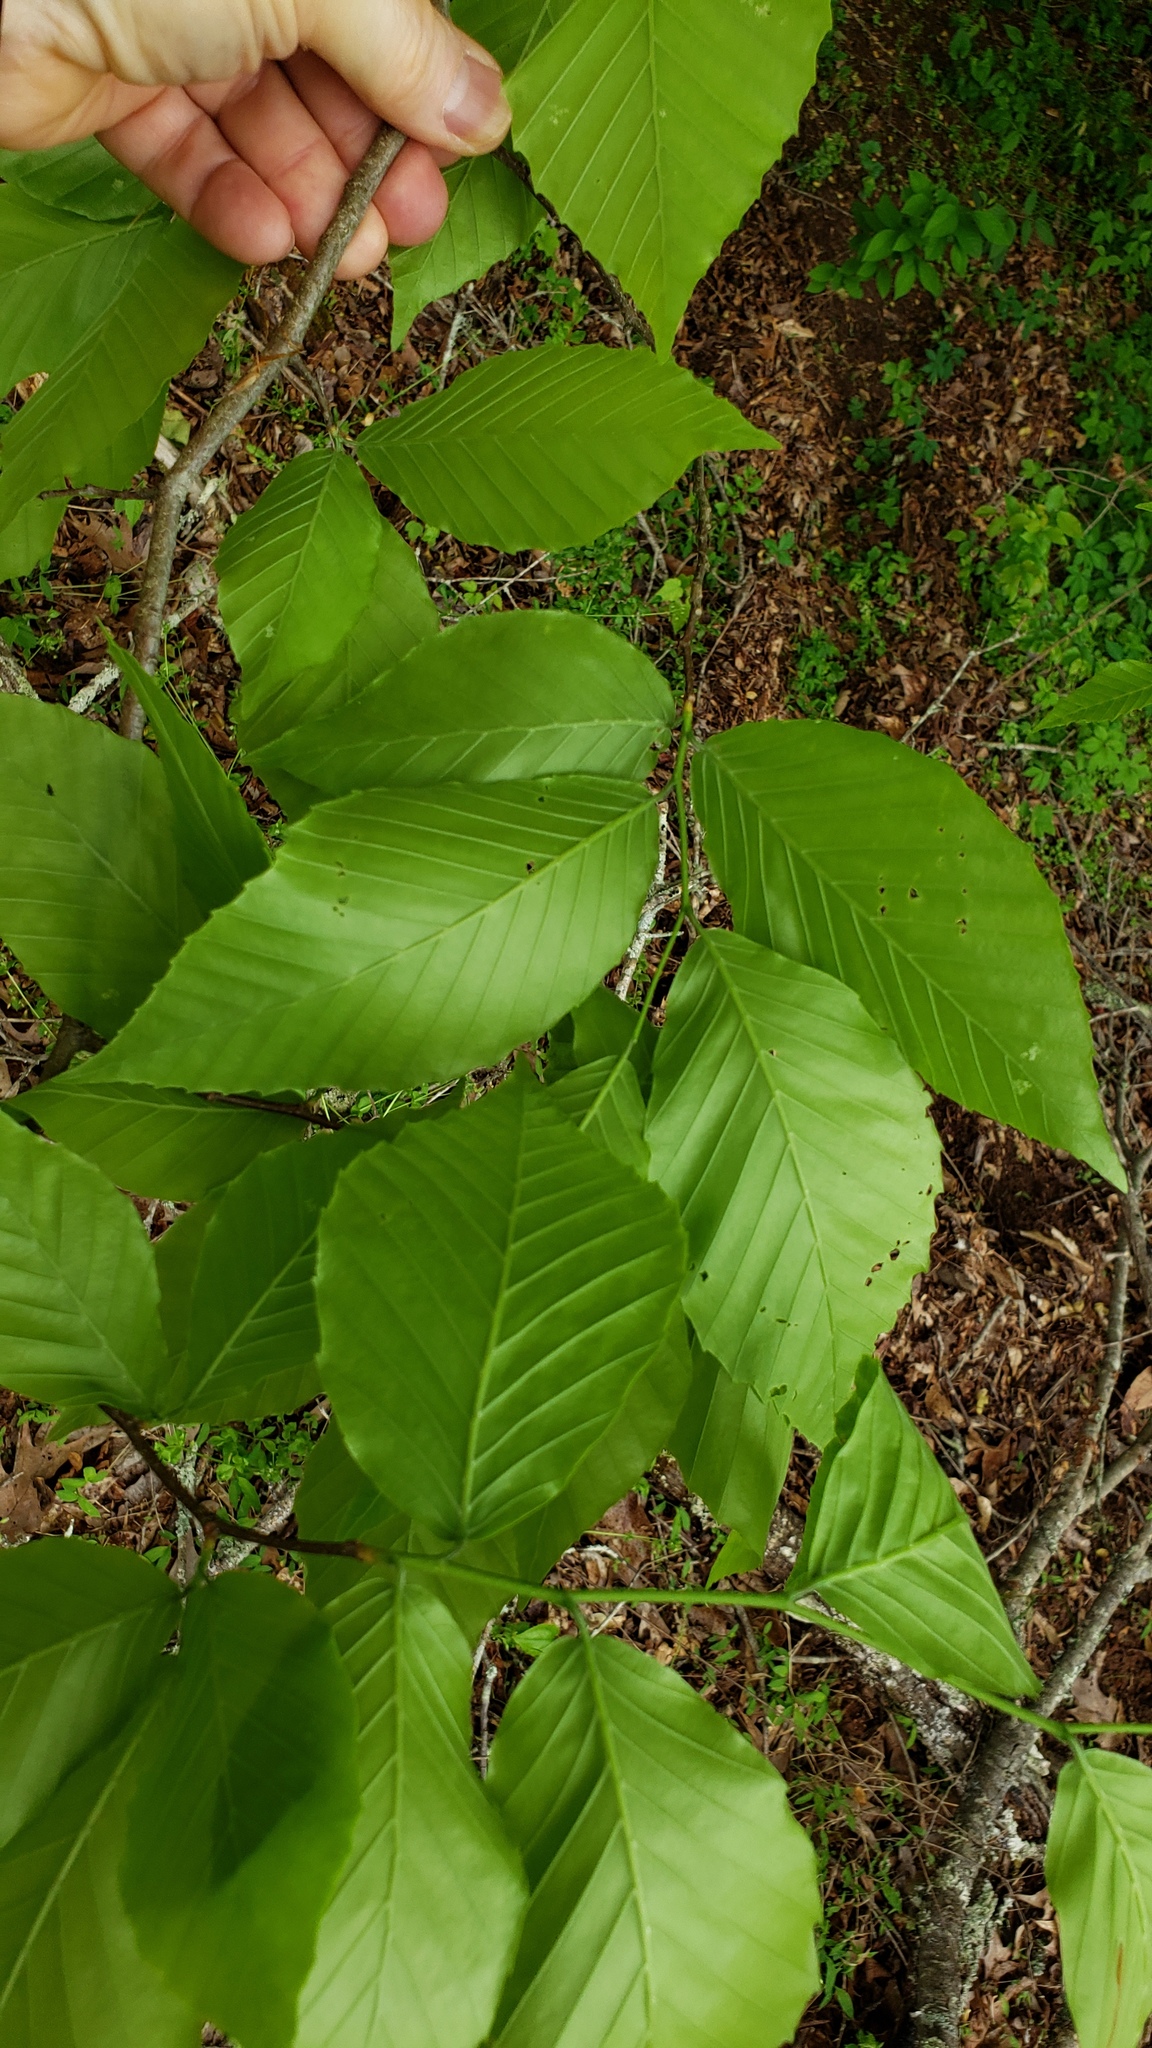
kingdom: Plantae
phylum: Tracheophyta
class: Magnoliopsida
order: Fagales
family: Fagaceae
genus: Fagus
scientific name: Fagus grandifolia
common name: American beech
